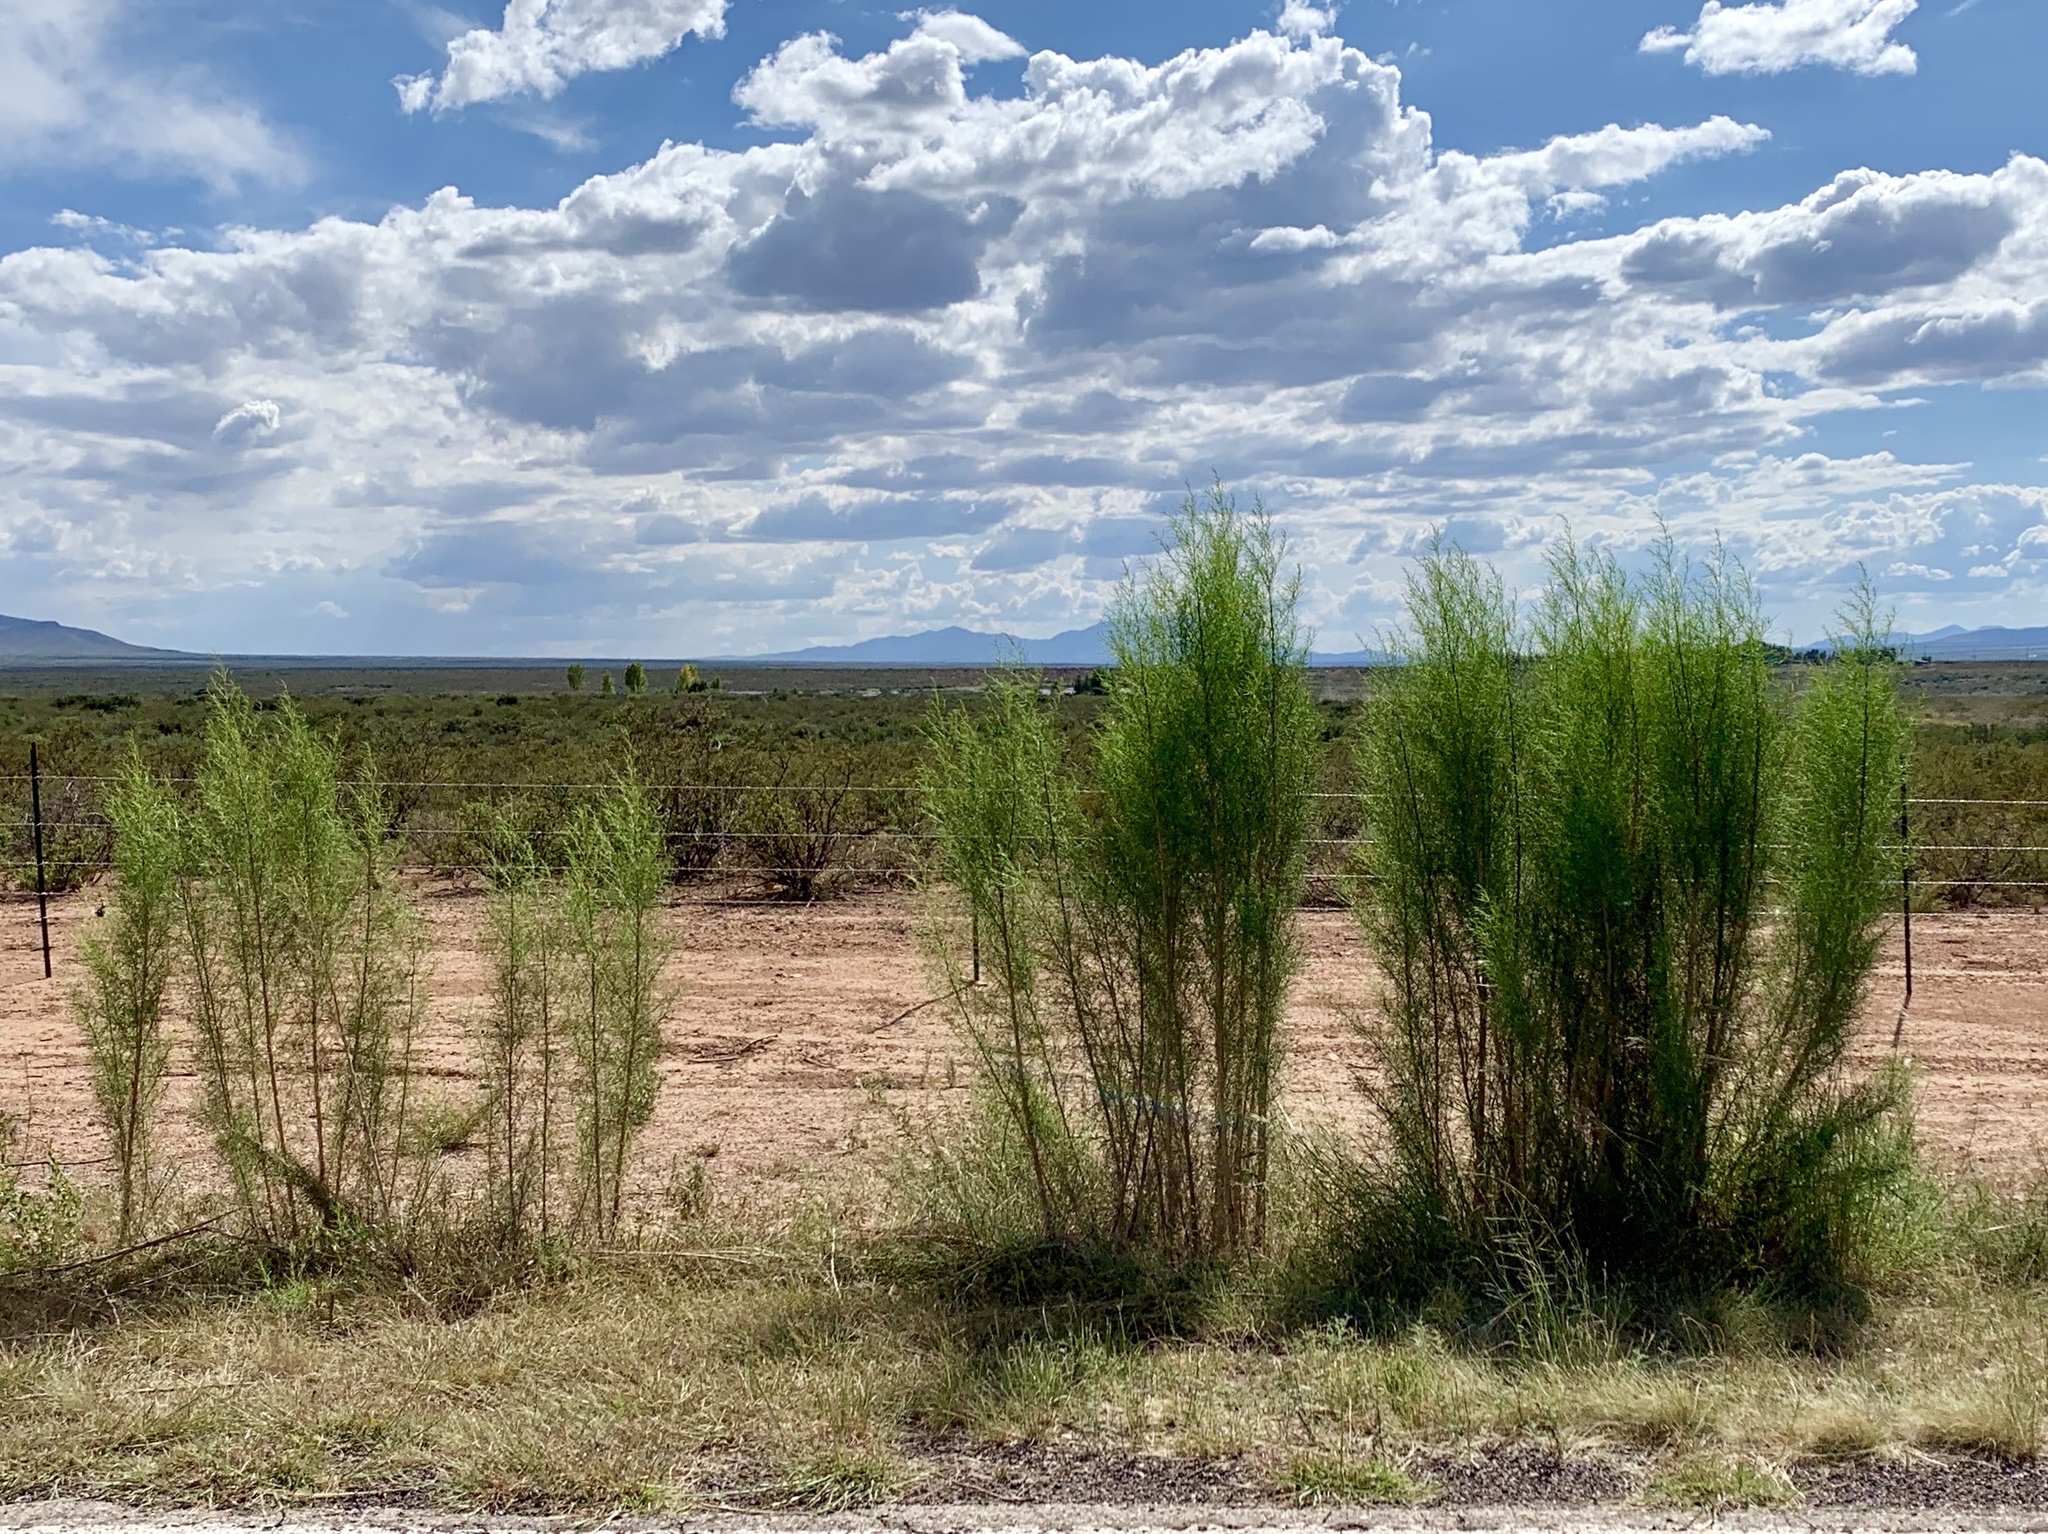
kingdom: Plantae
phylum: Tracheophyta
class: Magnoliopsida
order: Asterales
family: Asteraceae
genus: Baccharis
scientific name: Baccharis sarothroides
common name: Desert-broom
